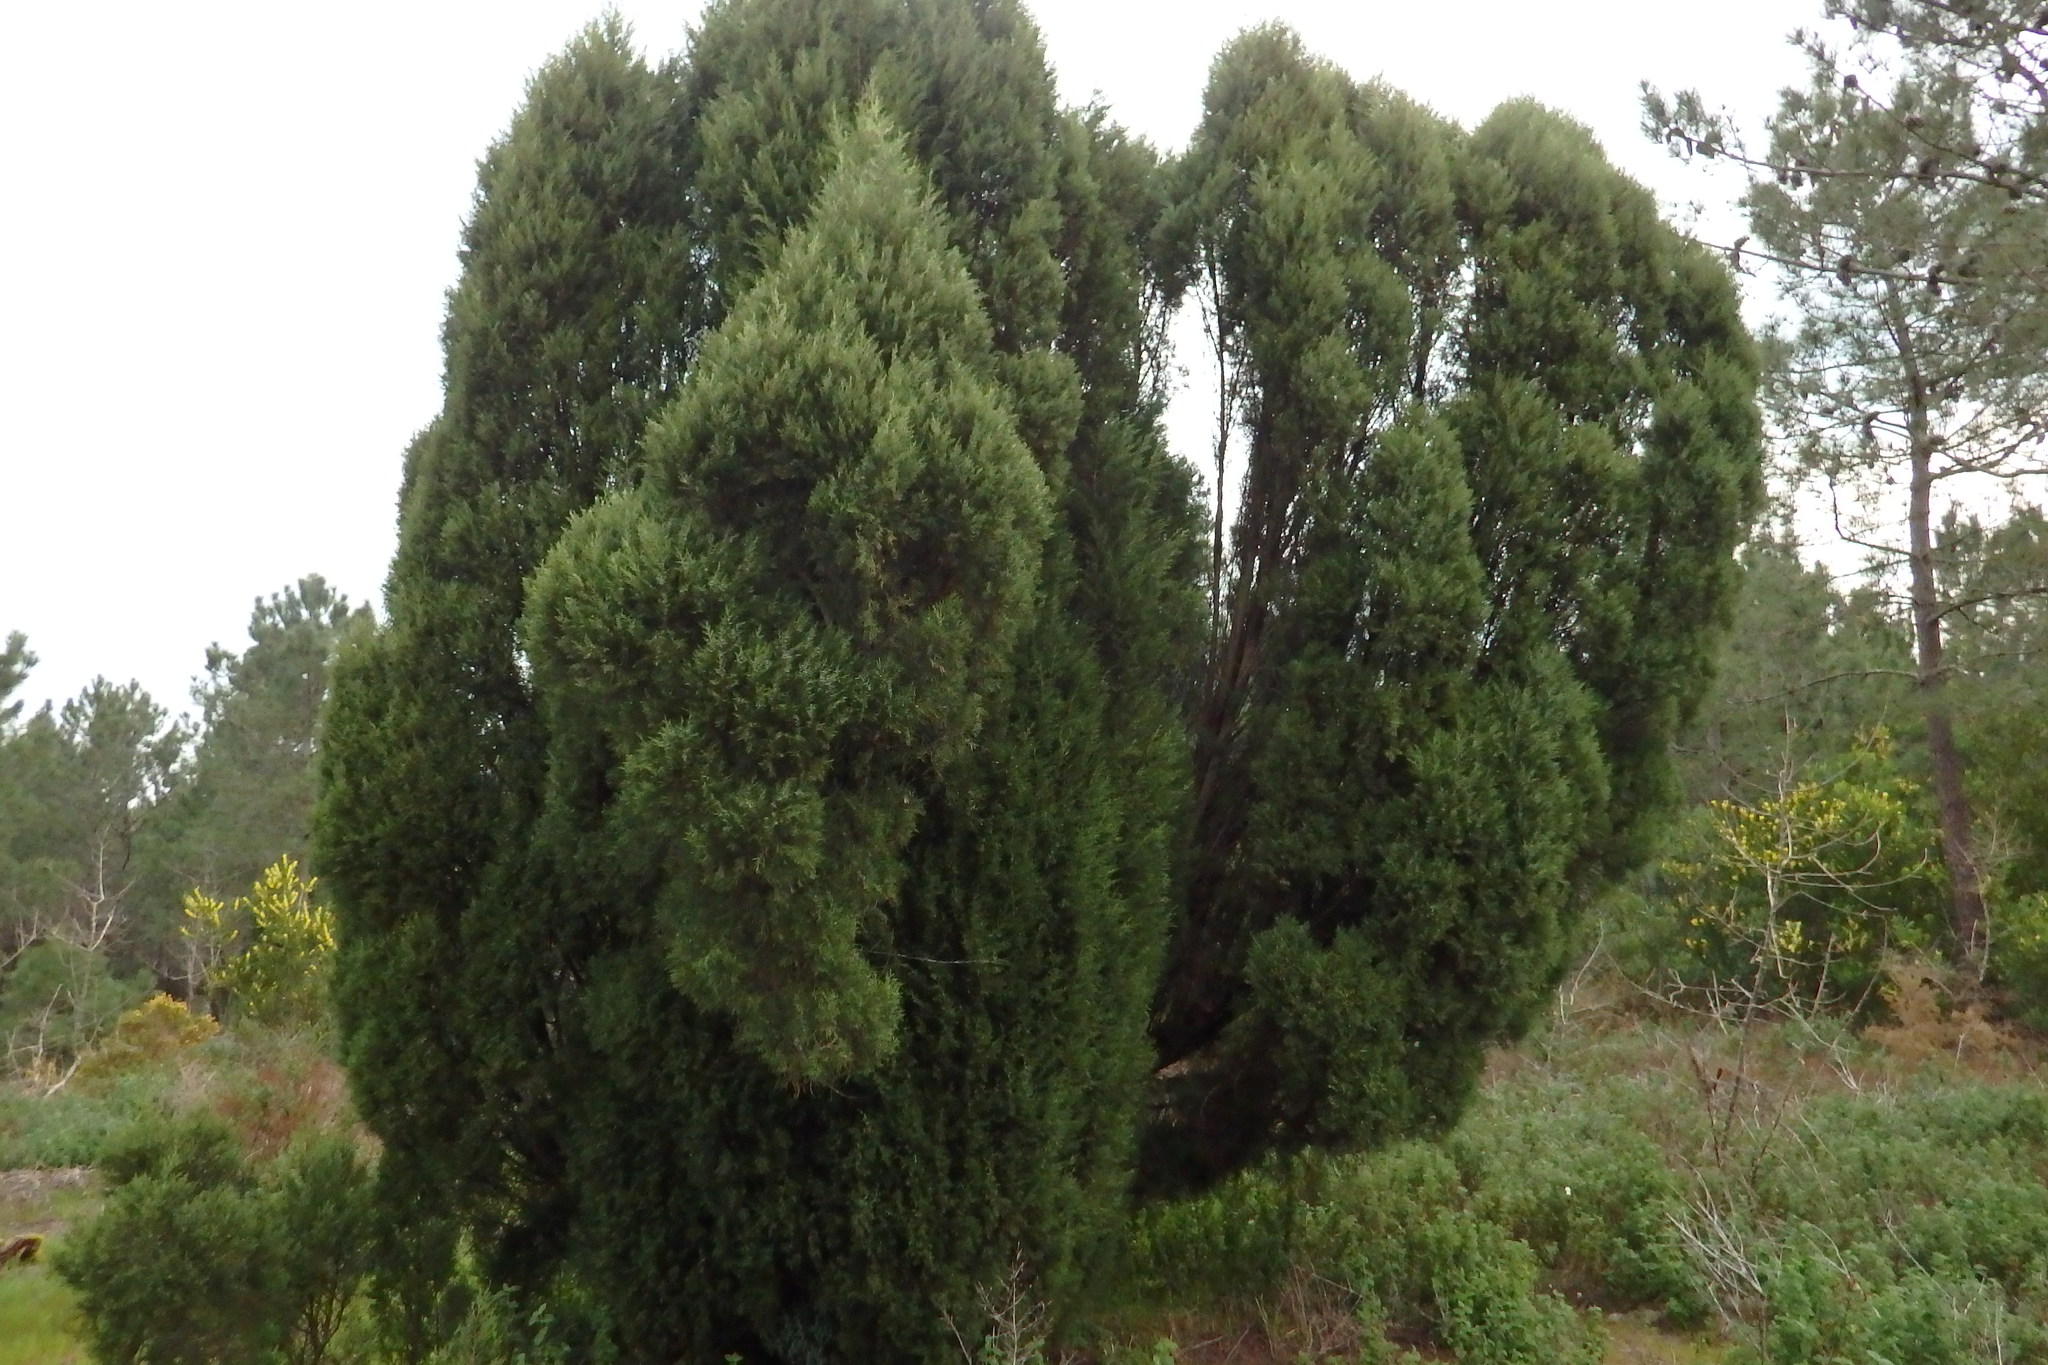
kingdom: Plantae
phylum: Tracheophyta
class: Pinopsida
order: Pinales
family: Cupressaceae
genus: Juniperus
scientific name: Juniperus phoenicea
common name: Phoenician juniper
